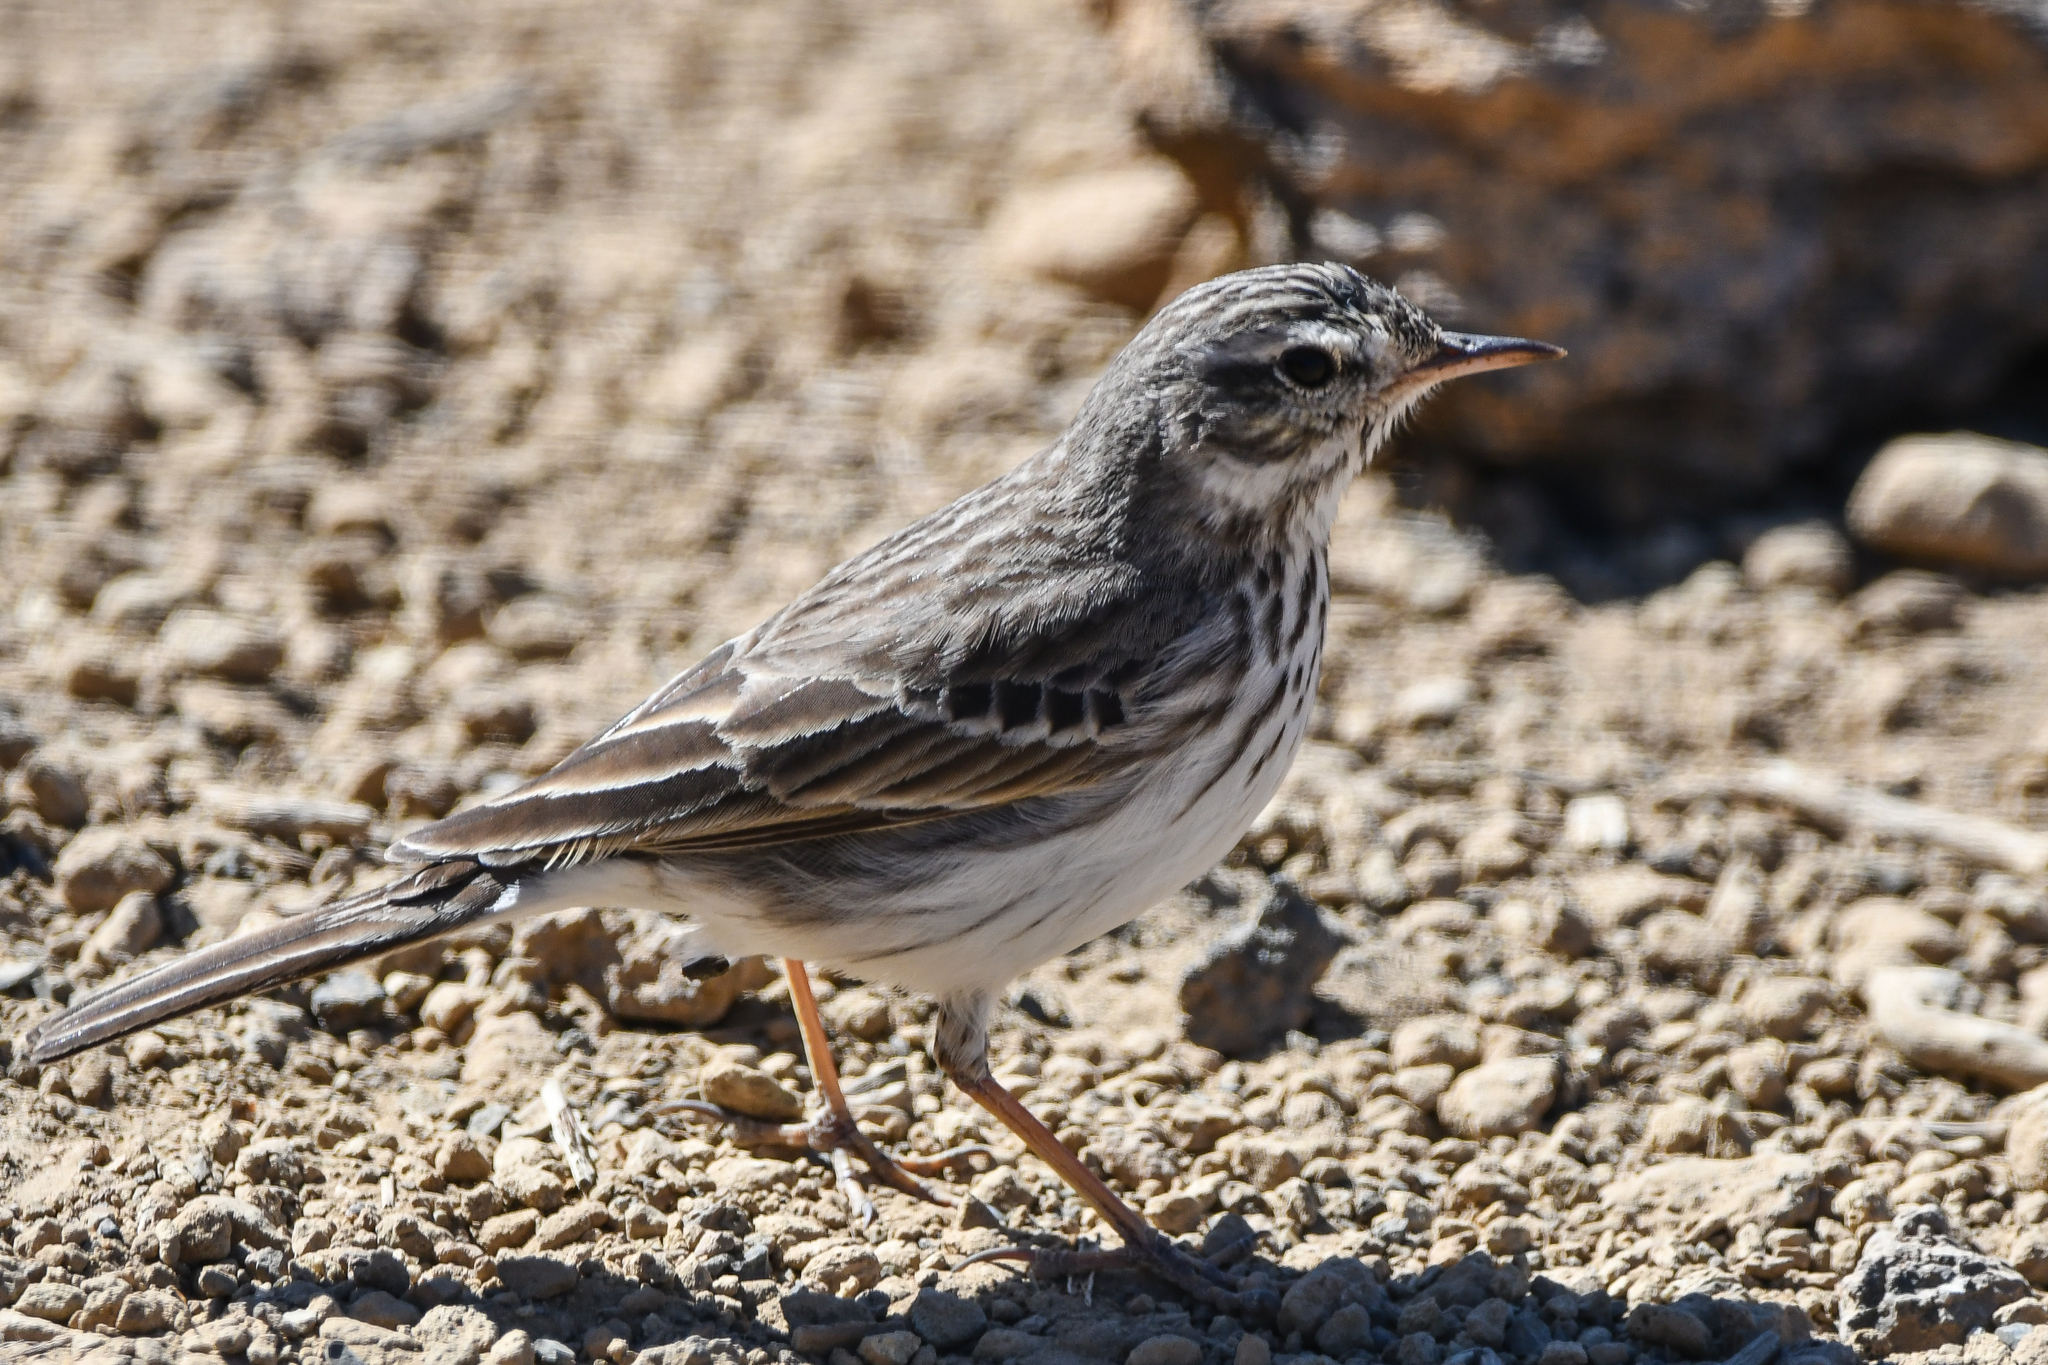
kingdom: Animalia
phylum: Chordata
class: Aves
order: Passeriformes
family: Motacillidae
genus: Anthus
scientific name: Anthus berthelotii
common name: Berthelot's pipit
